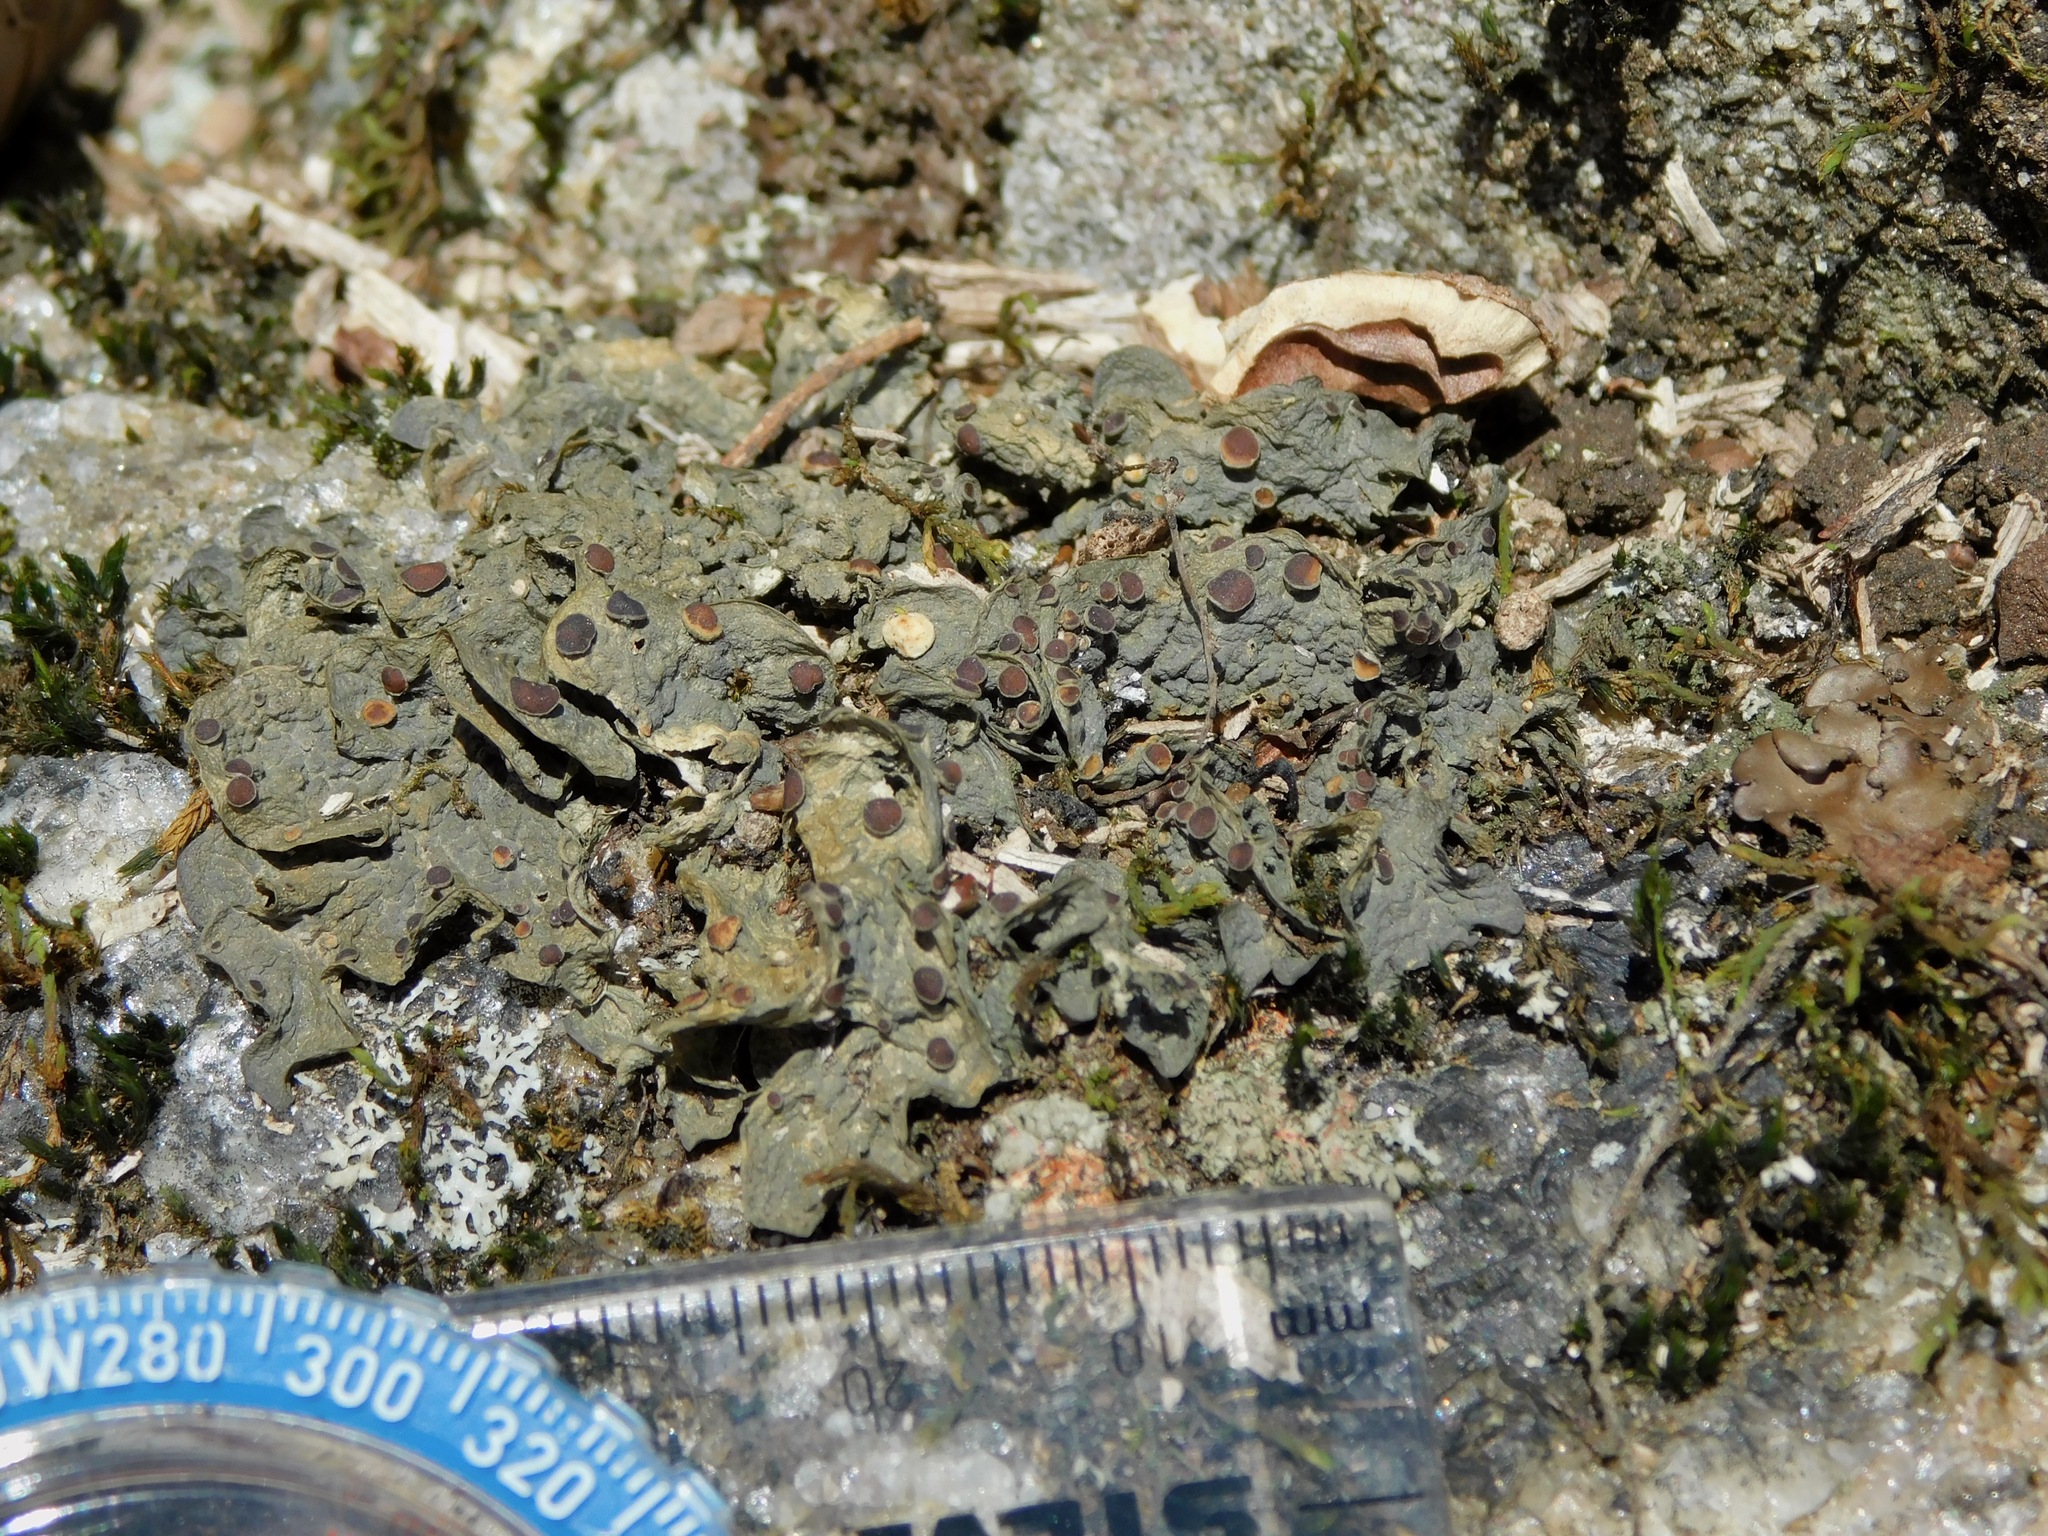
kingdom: Fungi
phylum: Ascomycota
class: Lecanoromycetes
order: Peltigerales
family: Collemataceae
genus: Leptogium
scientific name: Leptogium corticola
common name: Blistered jellyskin lichen
